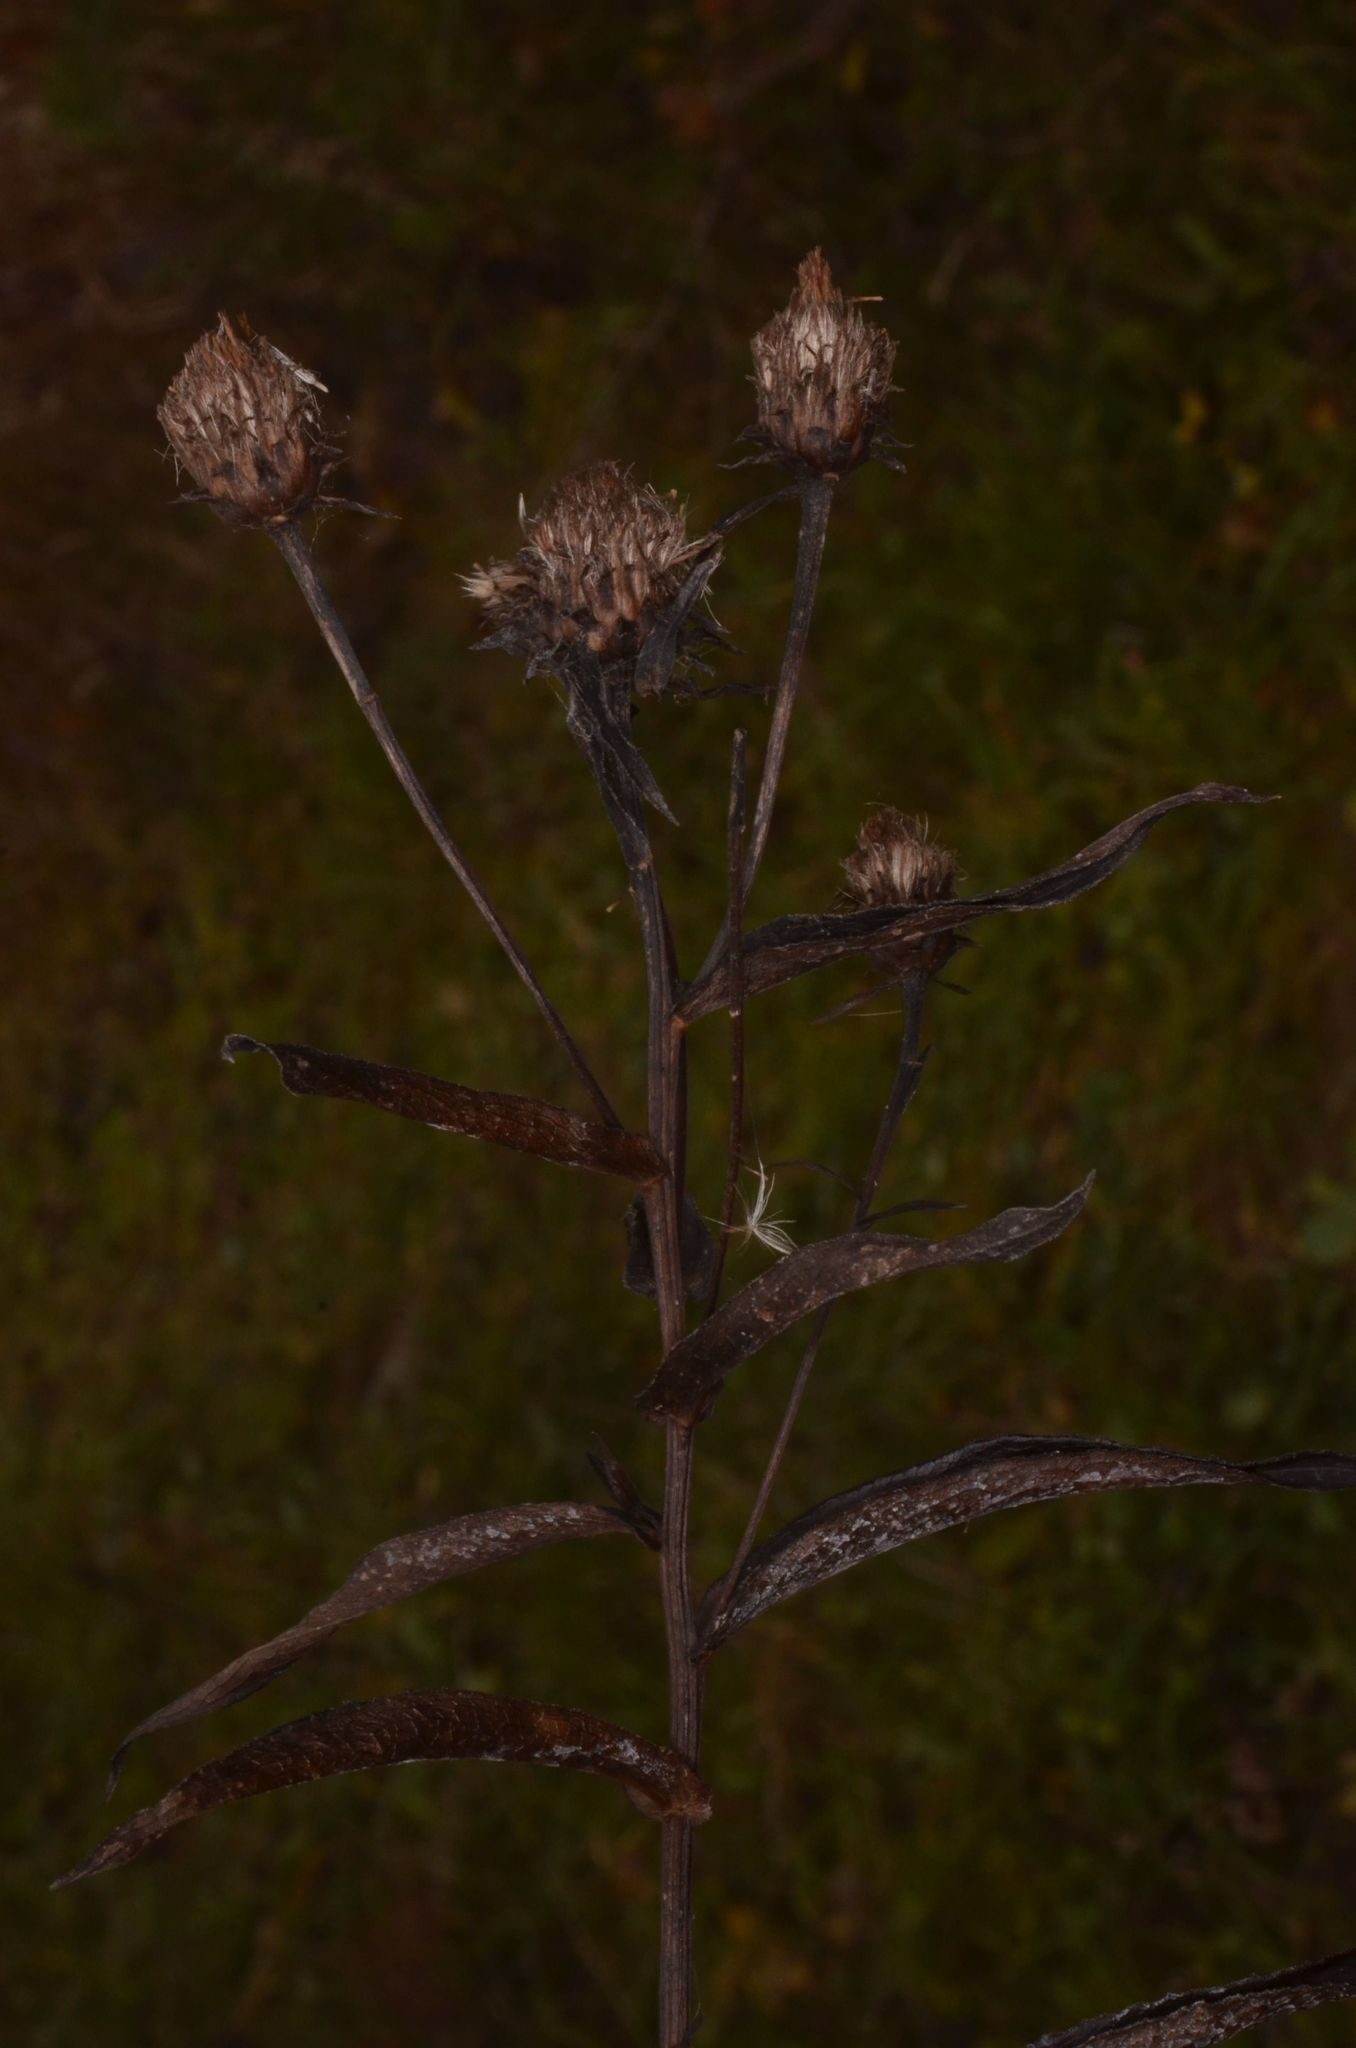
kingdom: Plantae
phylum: Tracheophyta
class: Magnoliopsida
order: Asterales
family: Asteraceae
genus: Pentanema
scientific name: Pentanema salicinum
